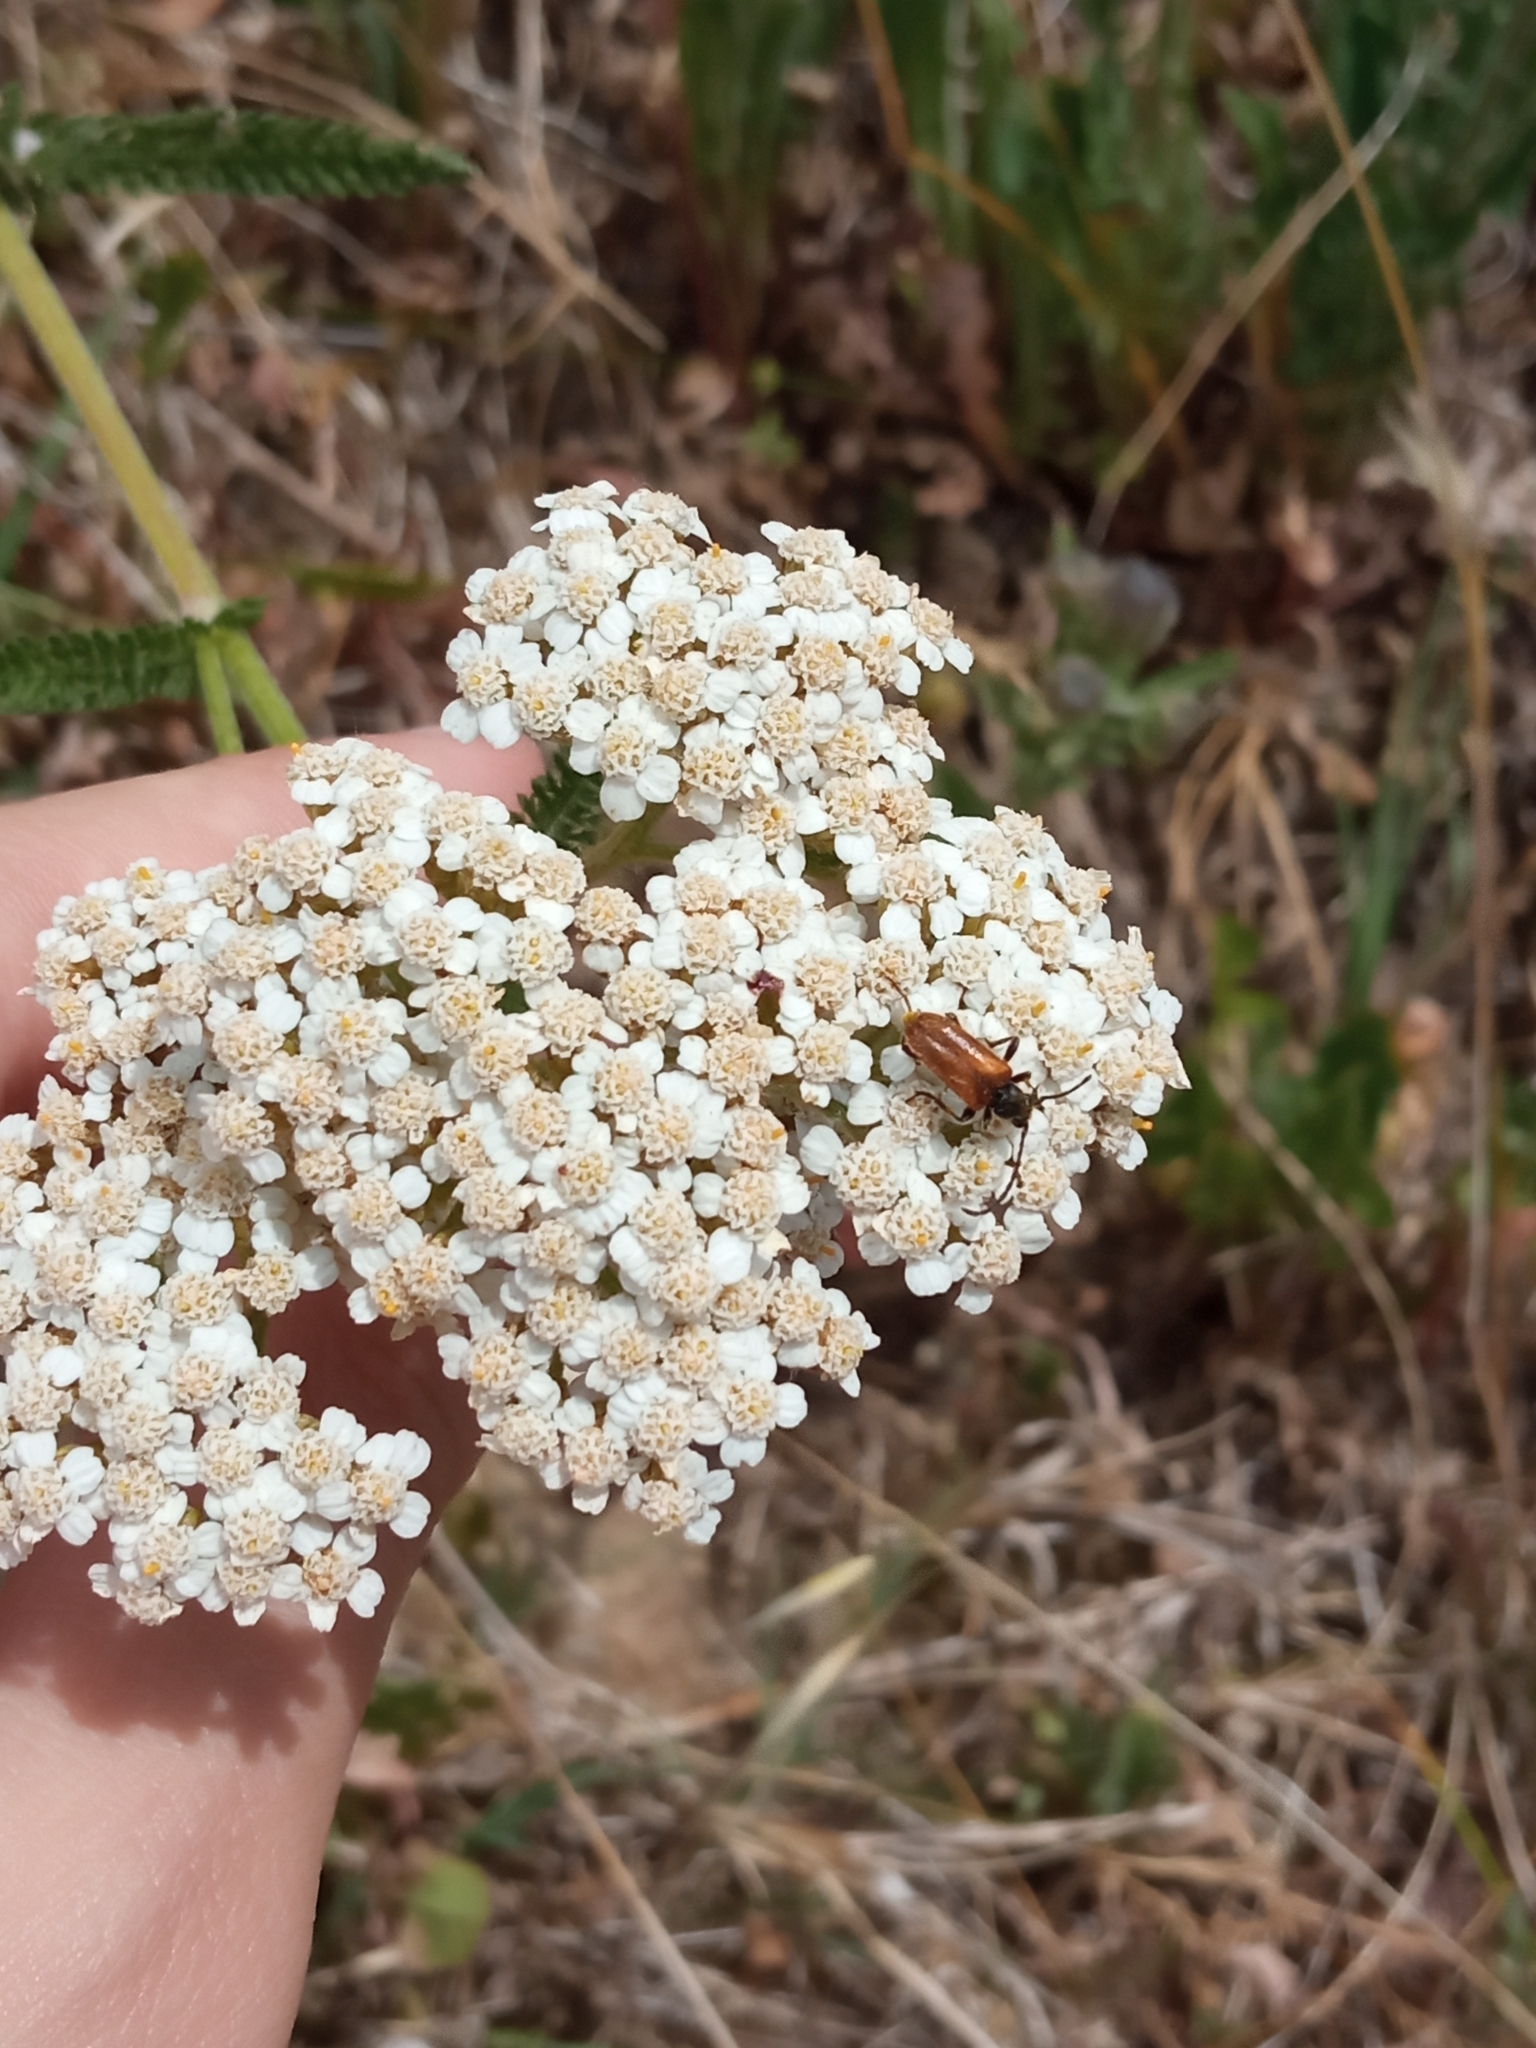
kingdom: Animalia
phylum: Arthropoda
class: Insecta
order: Coleoptera
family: Cerambycidae
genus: Pseudovadonia
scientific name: Pseudovadonia livida
